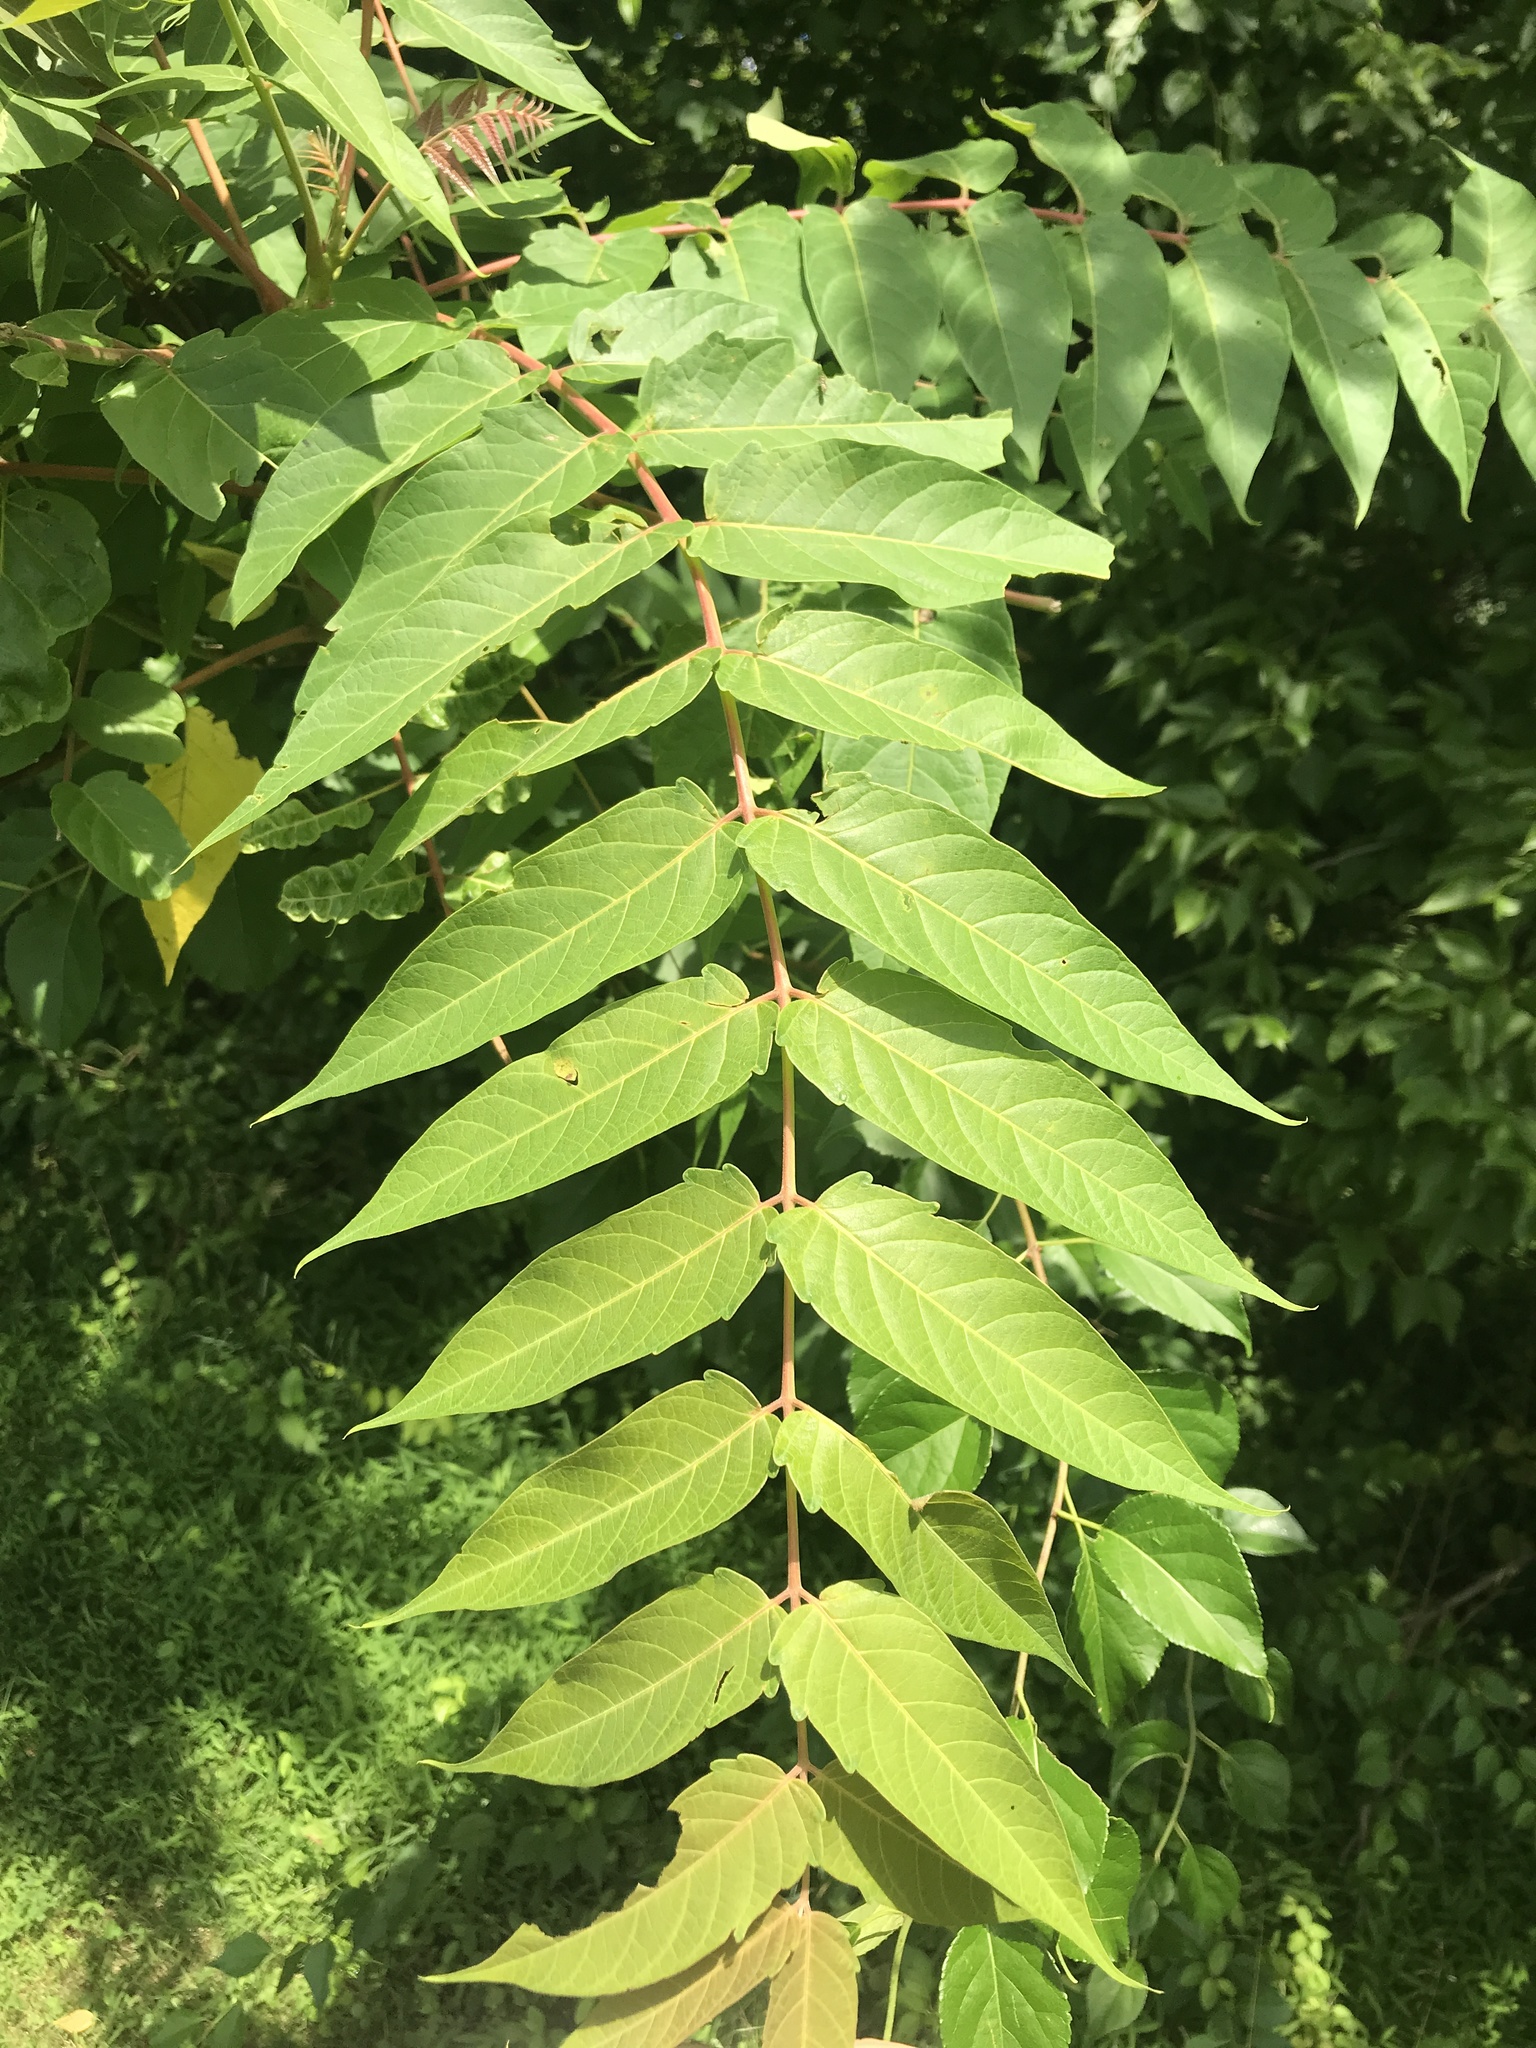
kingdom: Plantae
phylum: Tracheophyta
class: Magnoliopsida
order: Sapindales
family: Simaroubaceae
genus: Ailanthus
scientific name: Ailanthus altissima
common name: Tree-of-heaven
